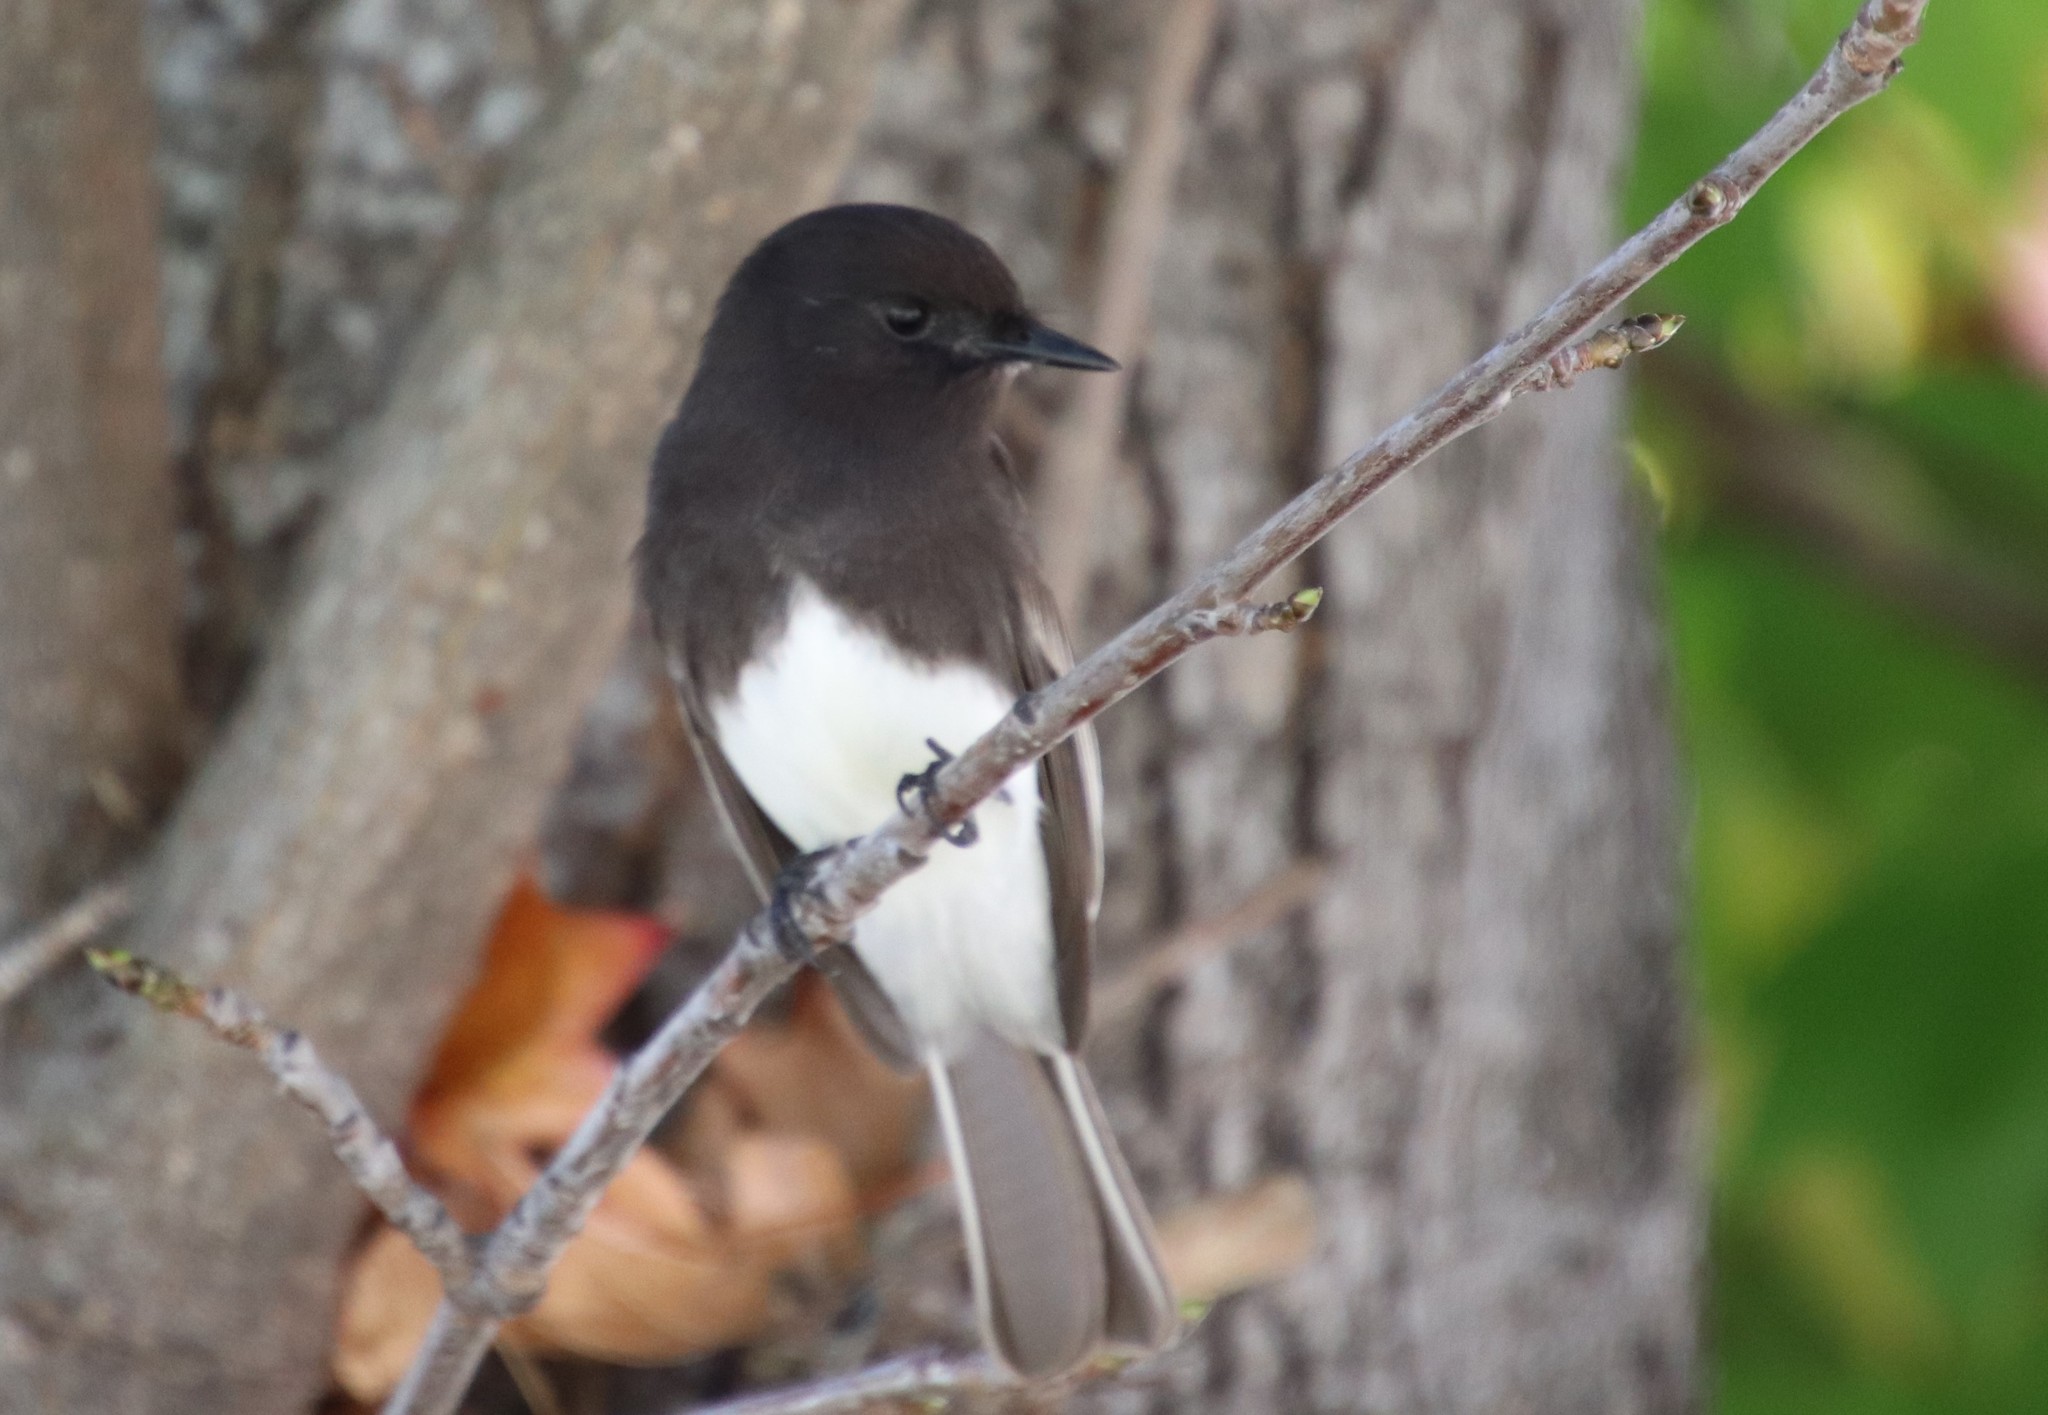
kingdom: Animalia
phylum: Chordata
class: Aves
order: Passeriformes
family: Tyrannidae
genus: Sayornis
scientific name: Sayornis nigricans
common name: Black phoebe
